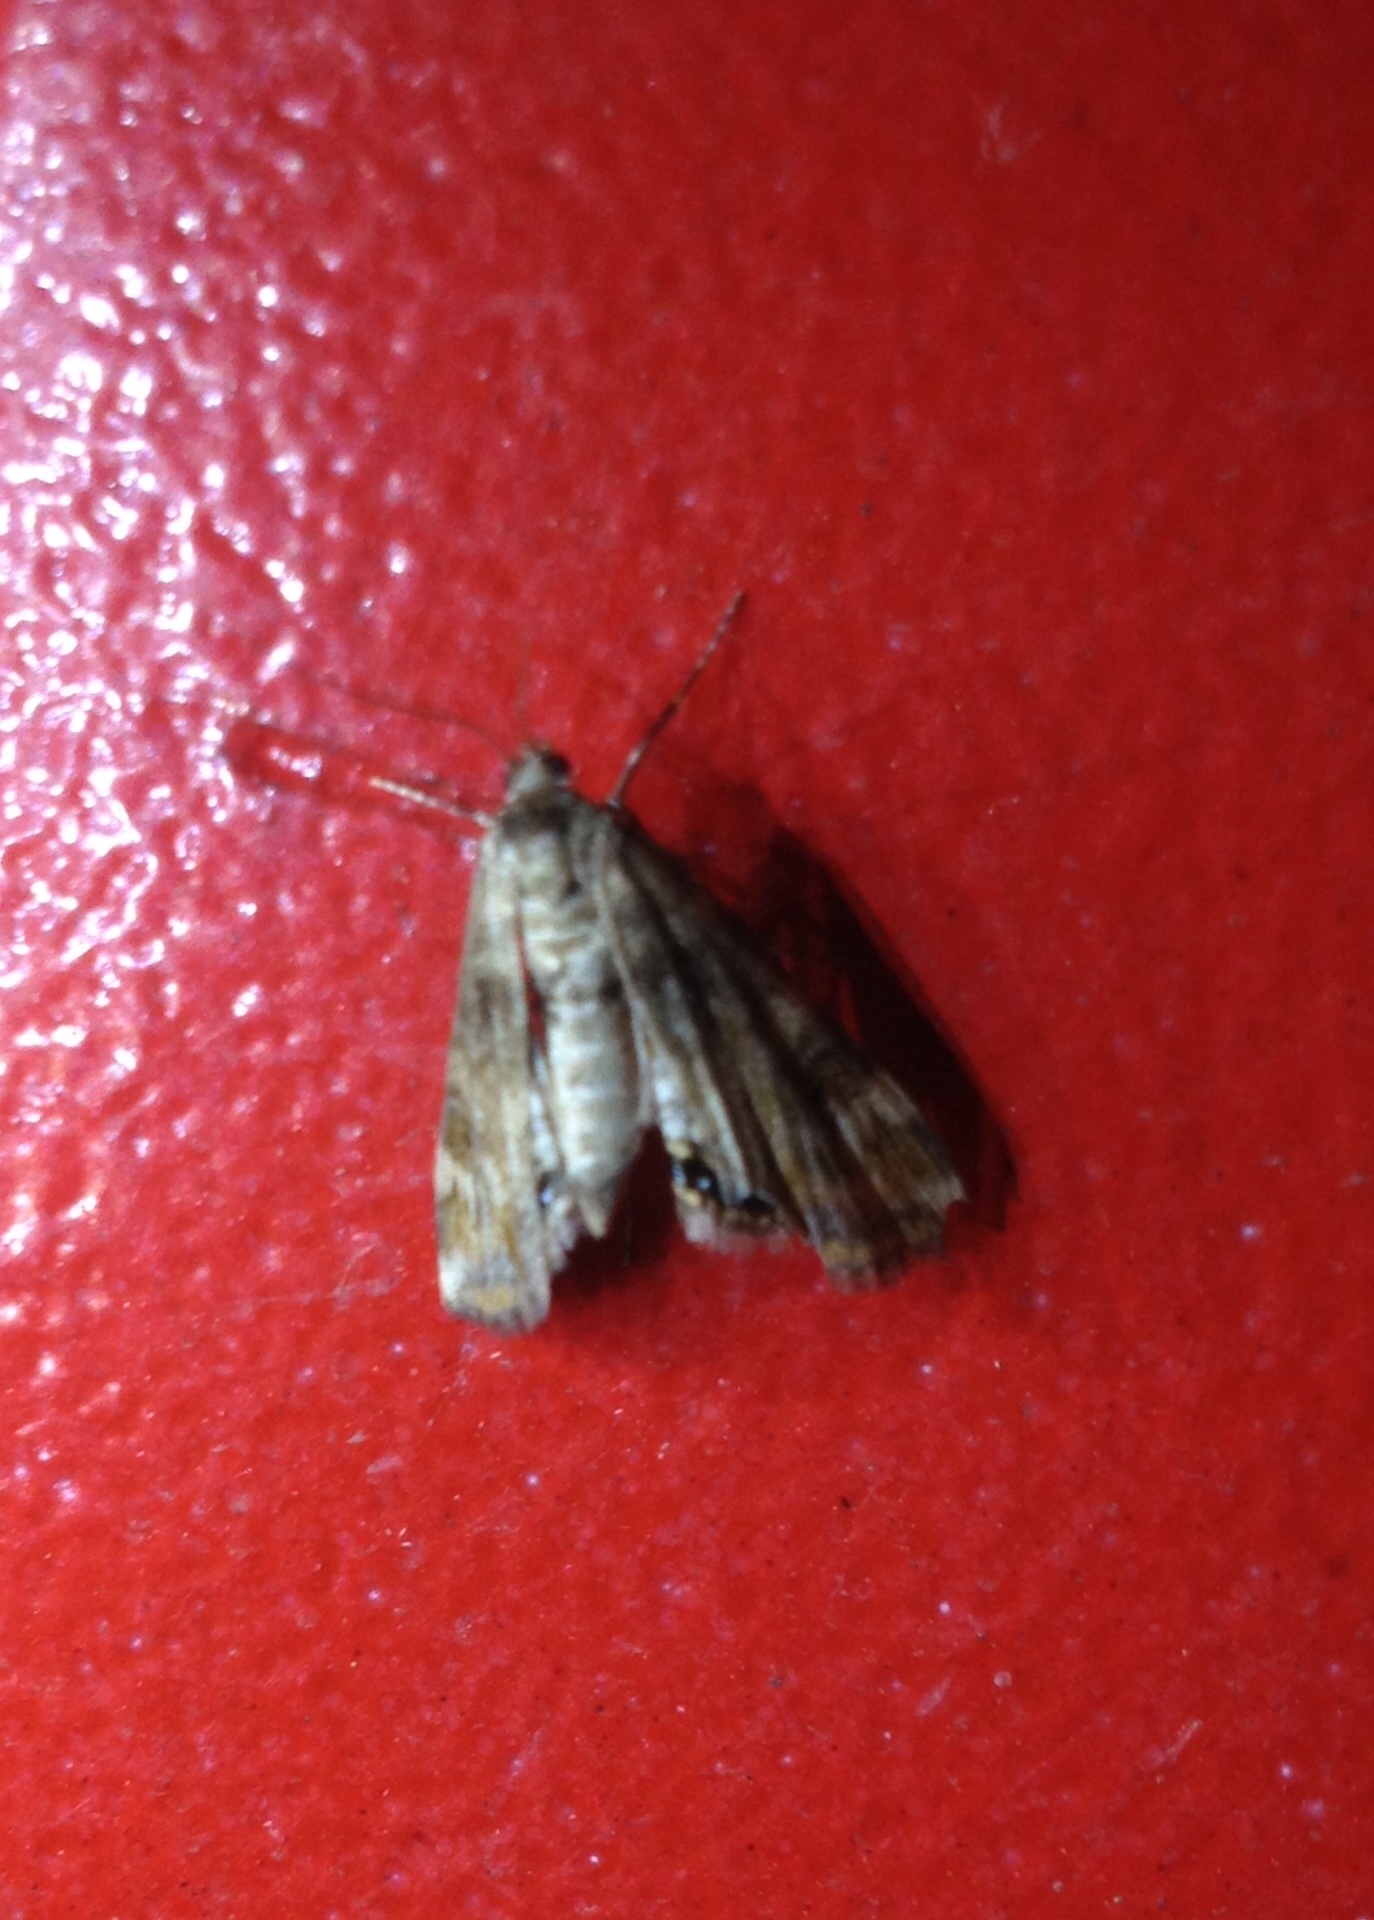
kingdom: Animalia
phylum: Arthropoda
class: Insecta
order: Lepidoptera
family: Crambidae
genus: Cataclysta
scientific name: Cataclysta lemnata
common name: Small china-mark
